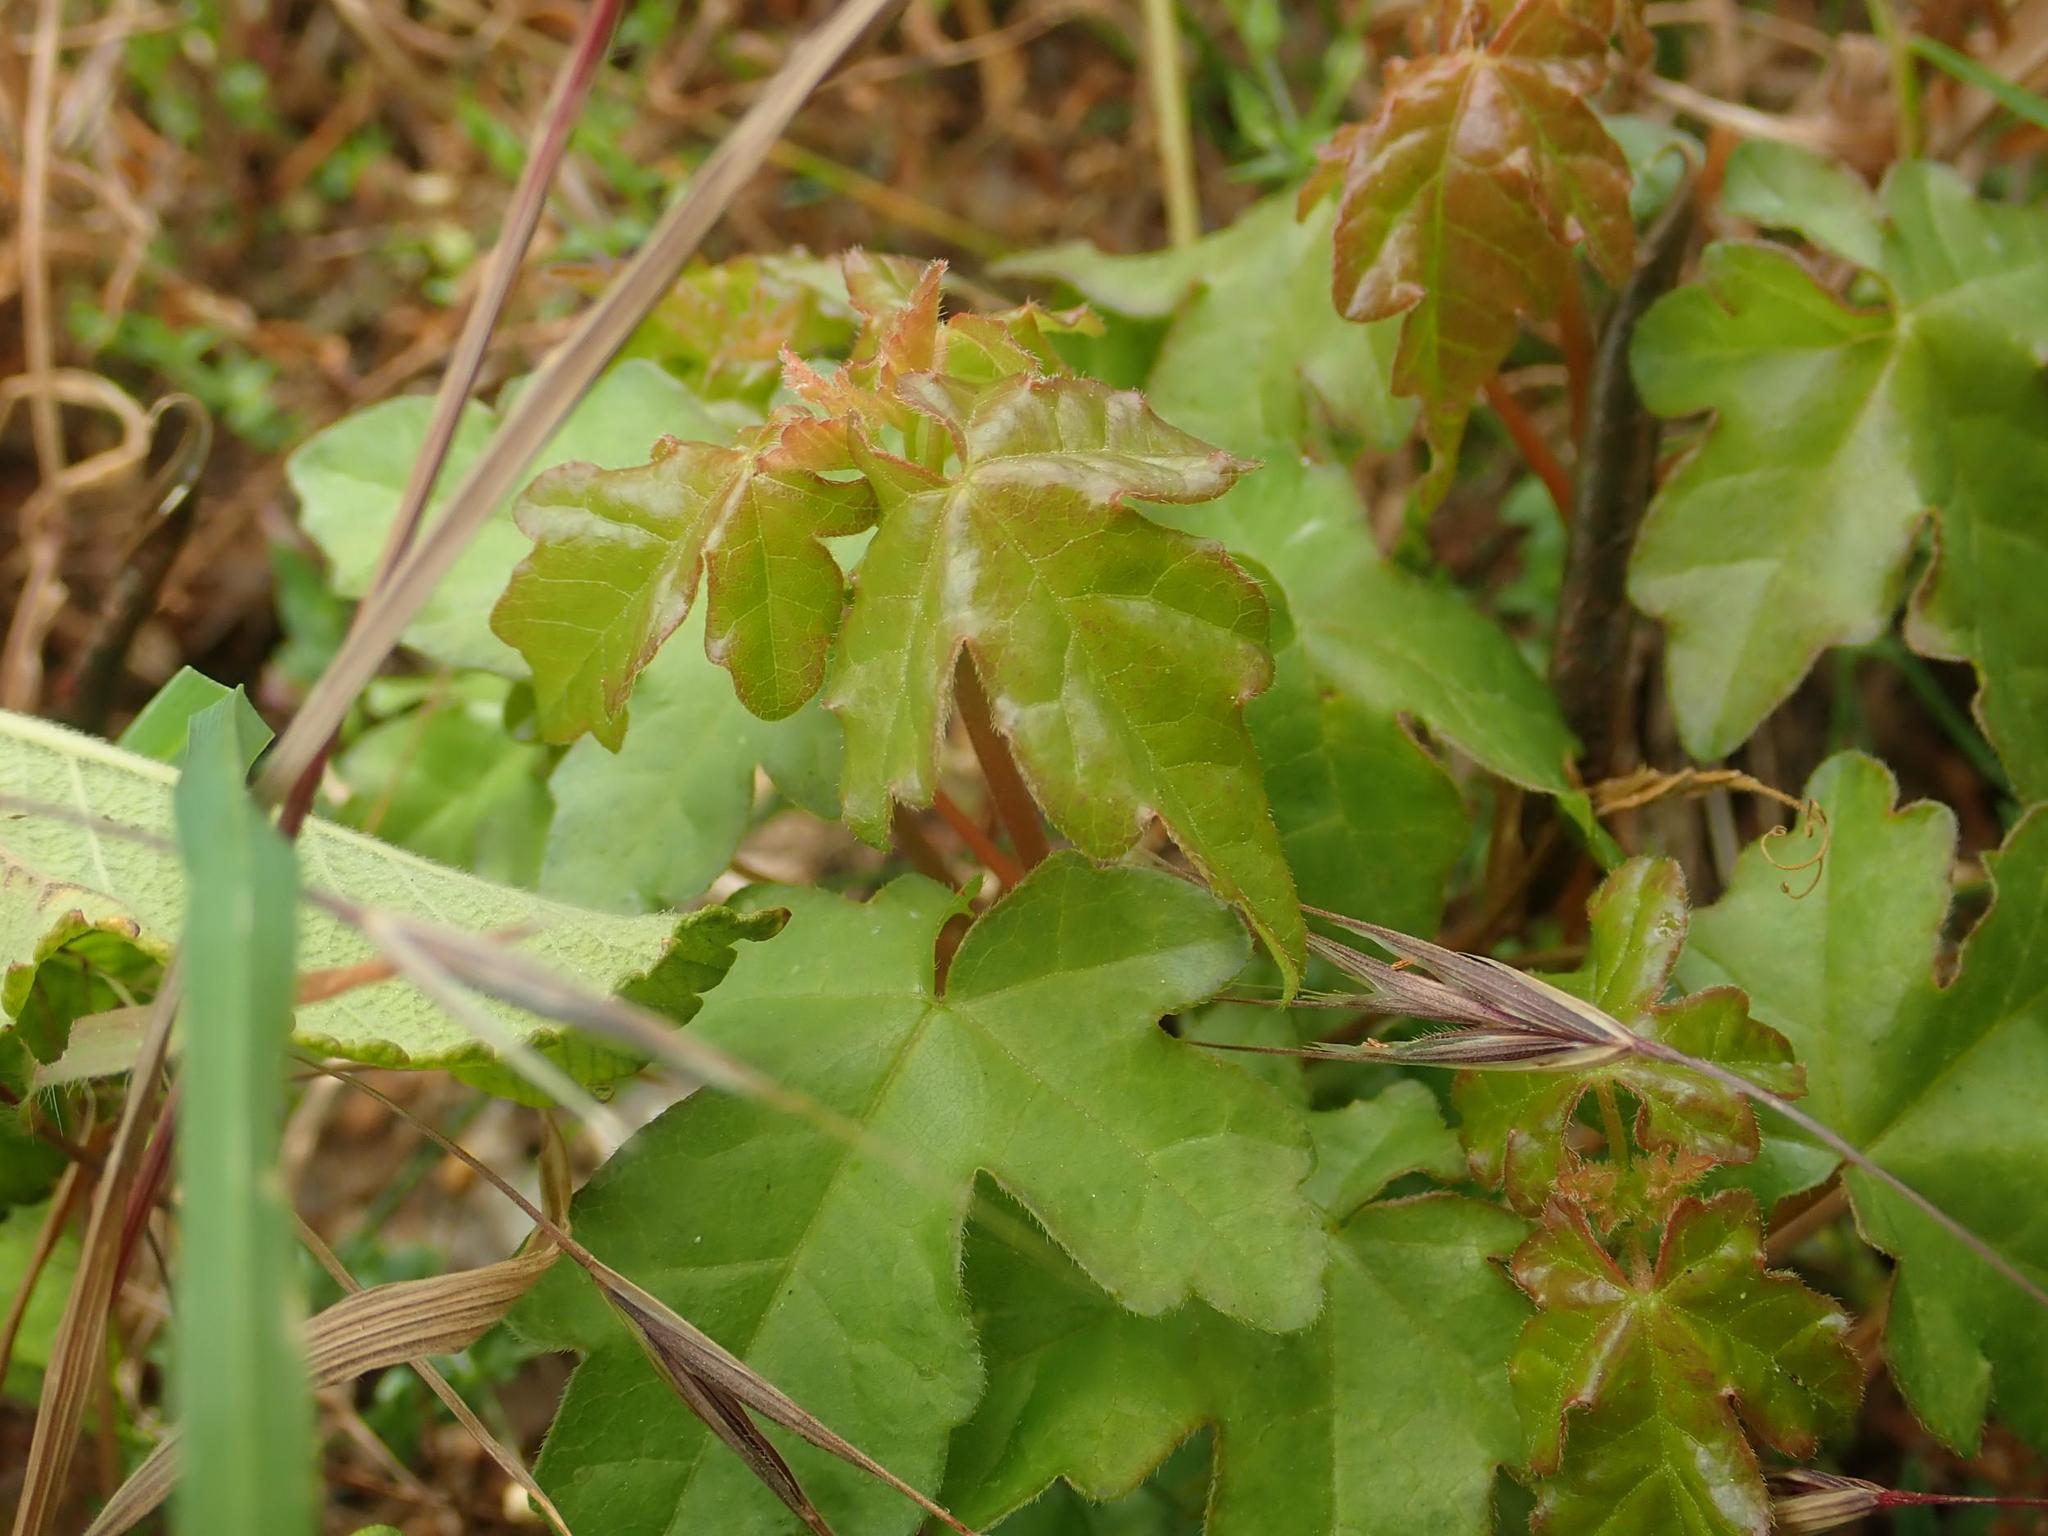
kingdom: Plantae
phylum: Tracheophyta
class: Magnoliopsida
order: Sapindales
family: Sapindaceae
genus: Acer
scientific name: Acer campestre
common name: Field maple
